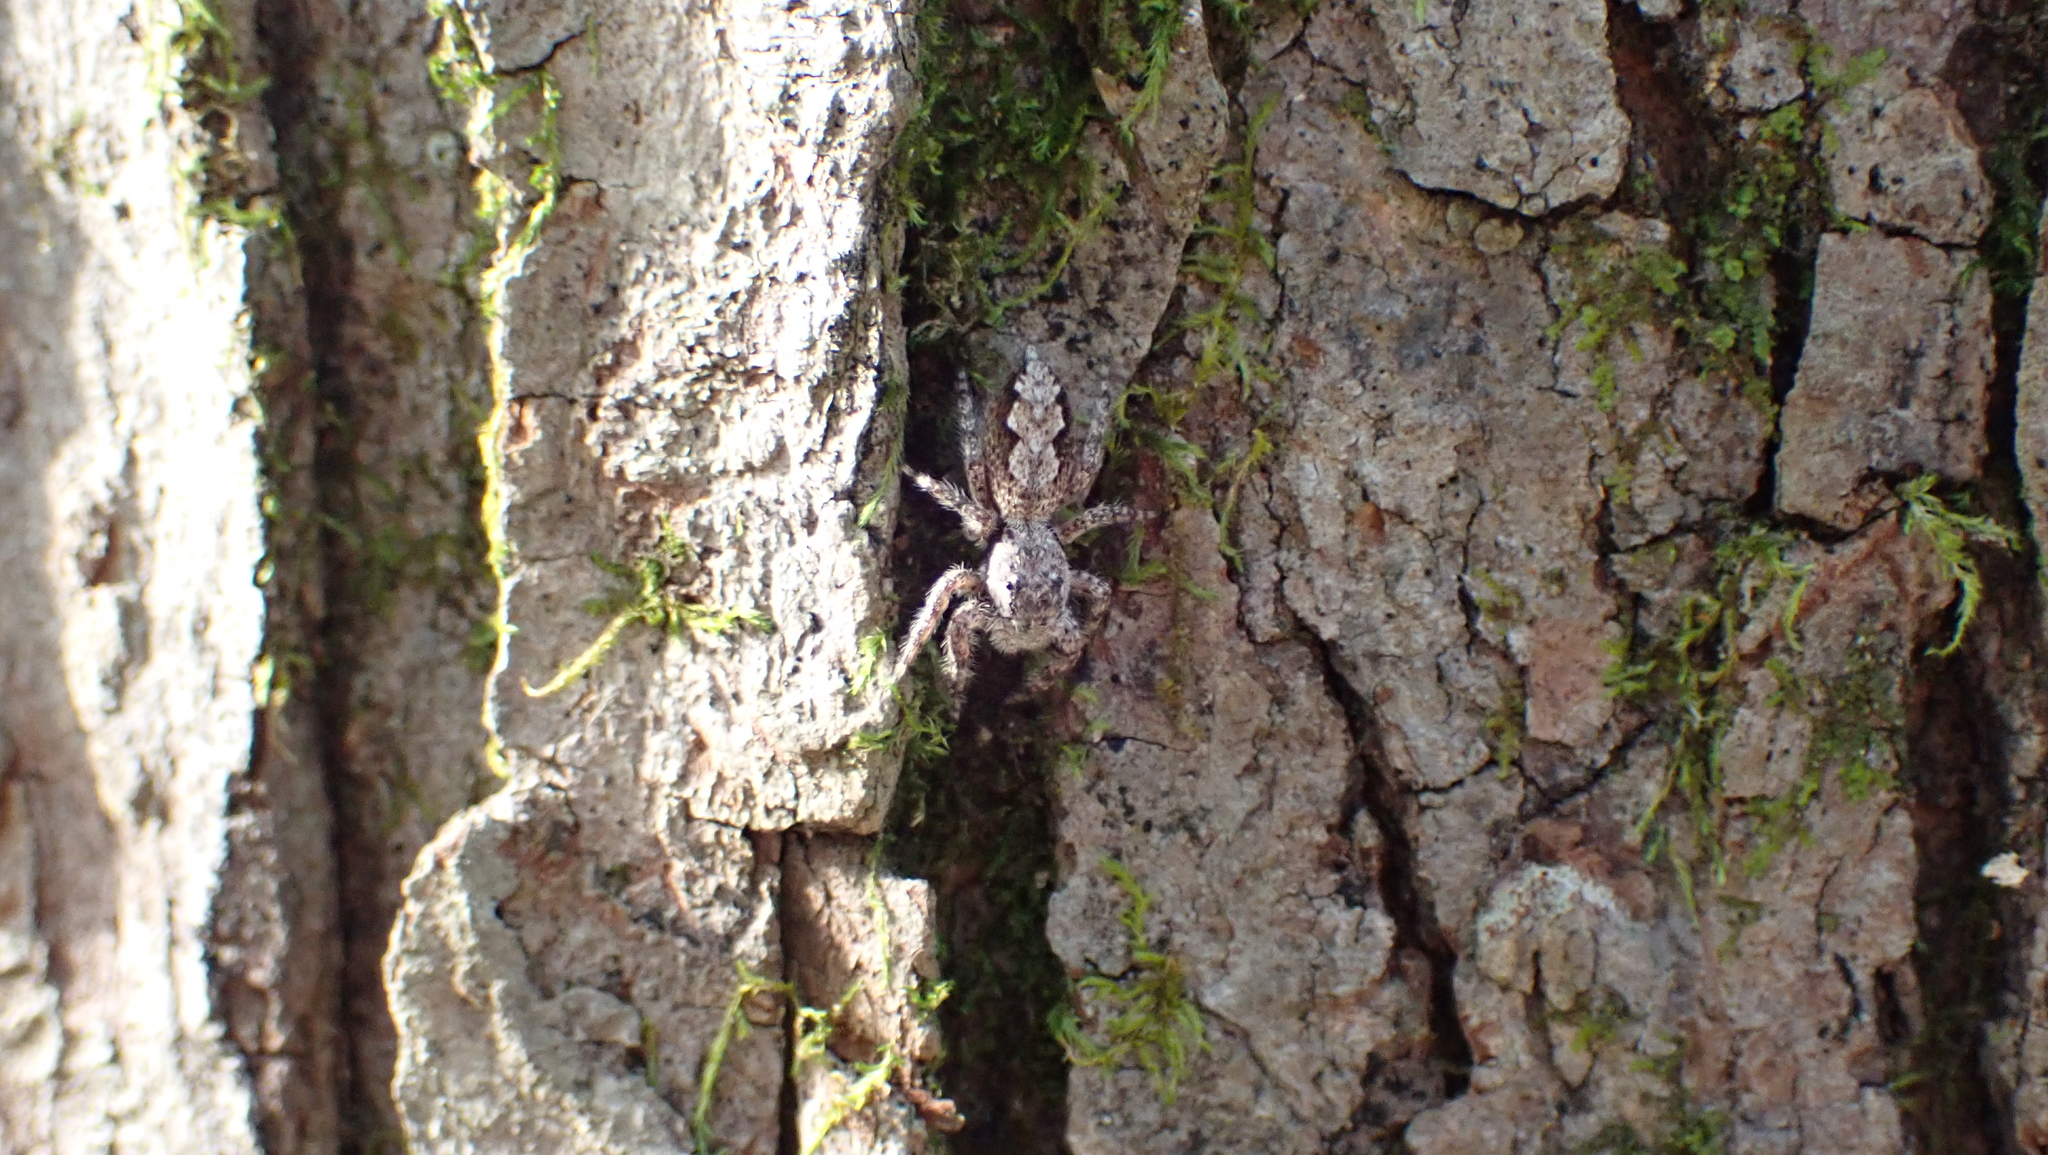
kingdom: Animalia
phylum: Arthropoda
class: Arachnida
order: Araneae
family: Salticidae
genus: Platycryptus
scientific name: Platycryptus undatus
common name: Tan jumping spider
